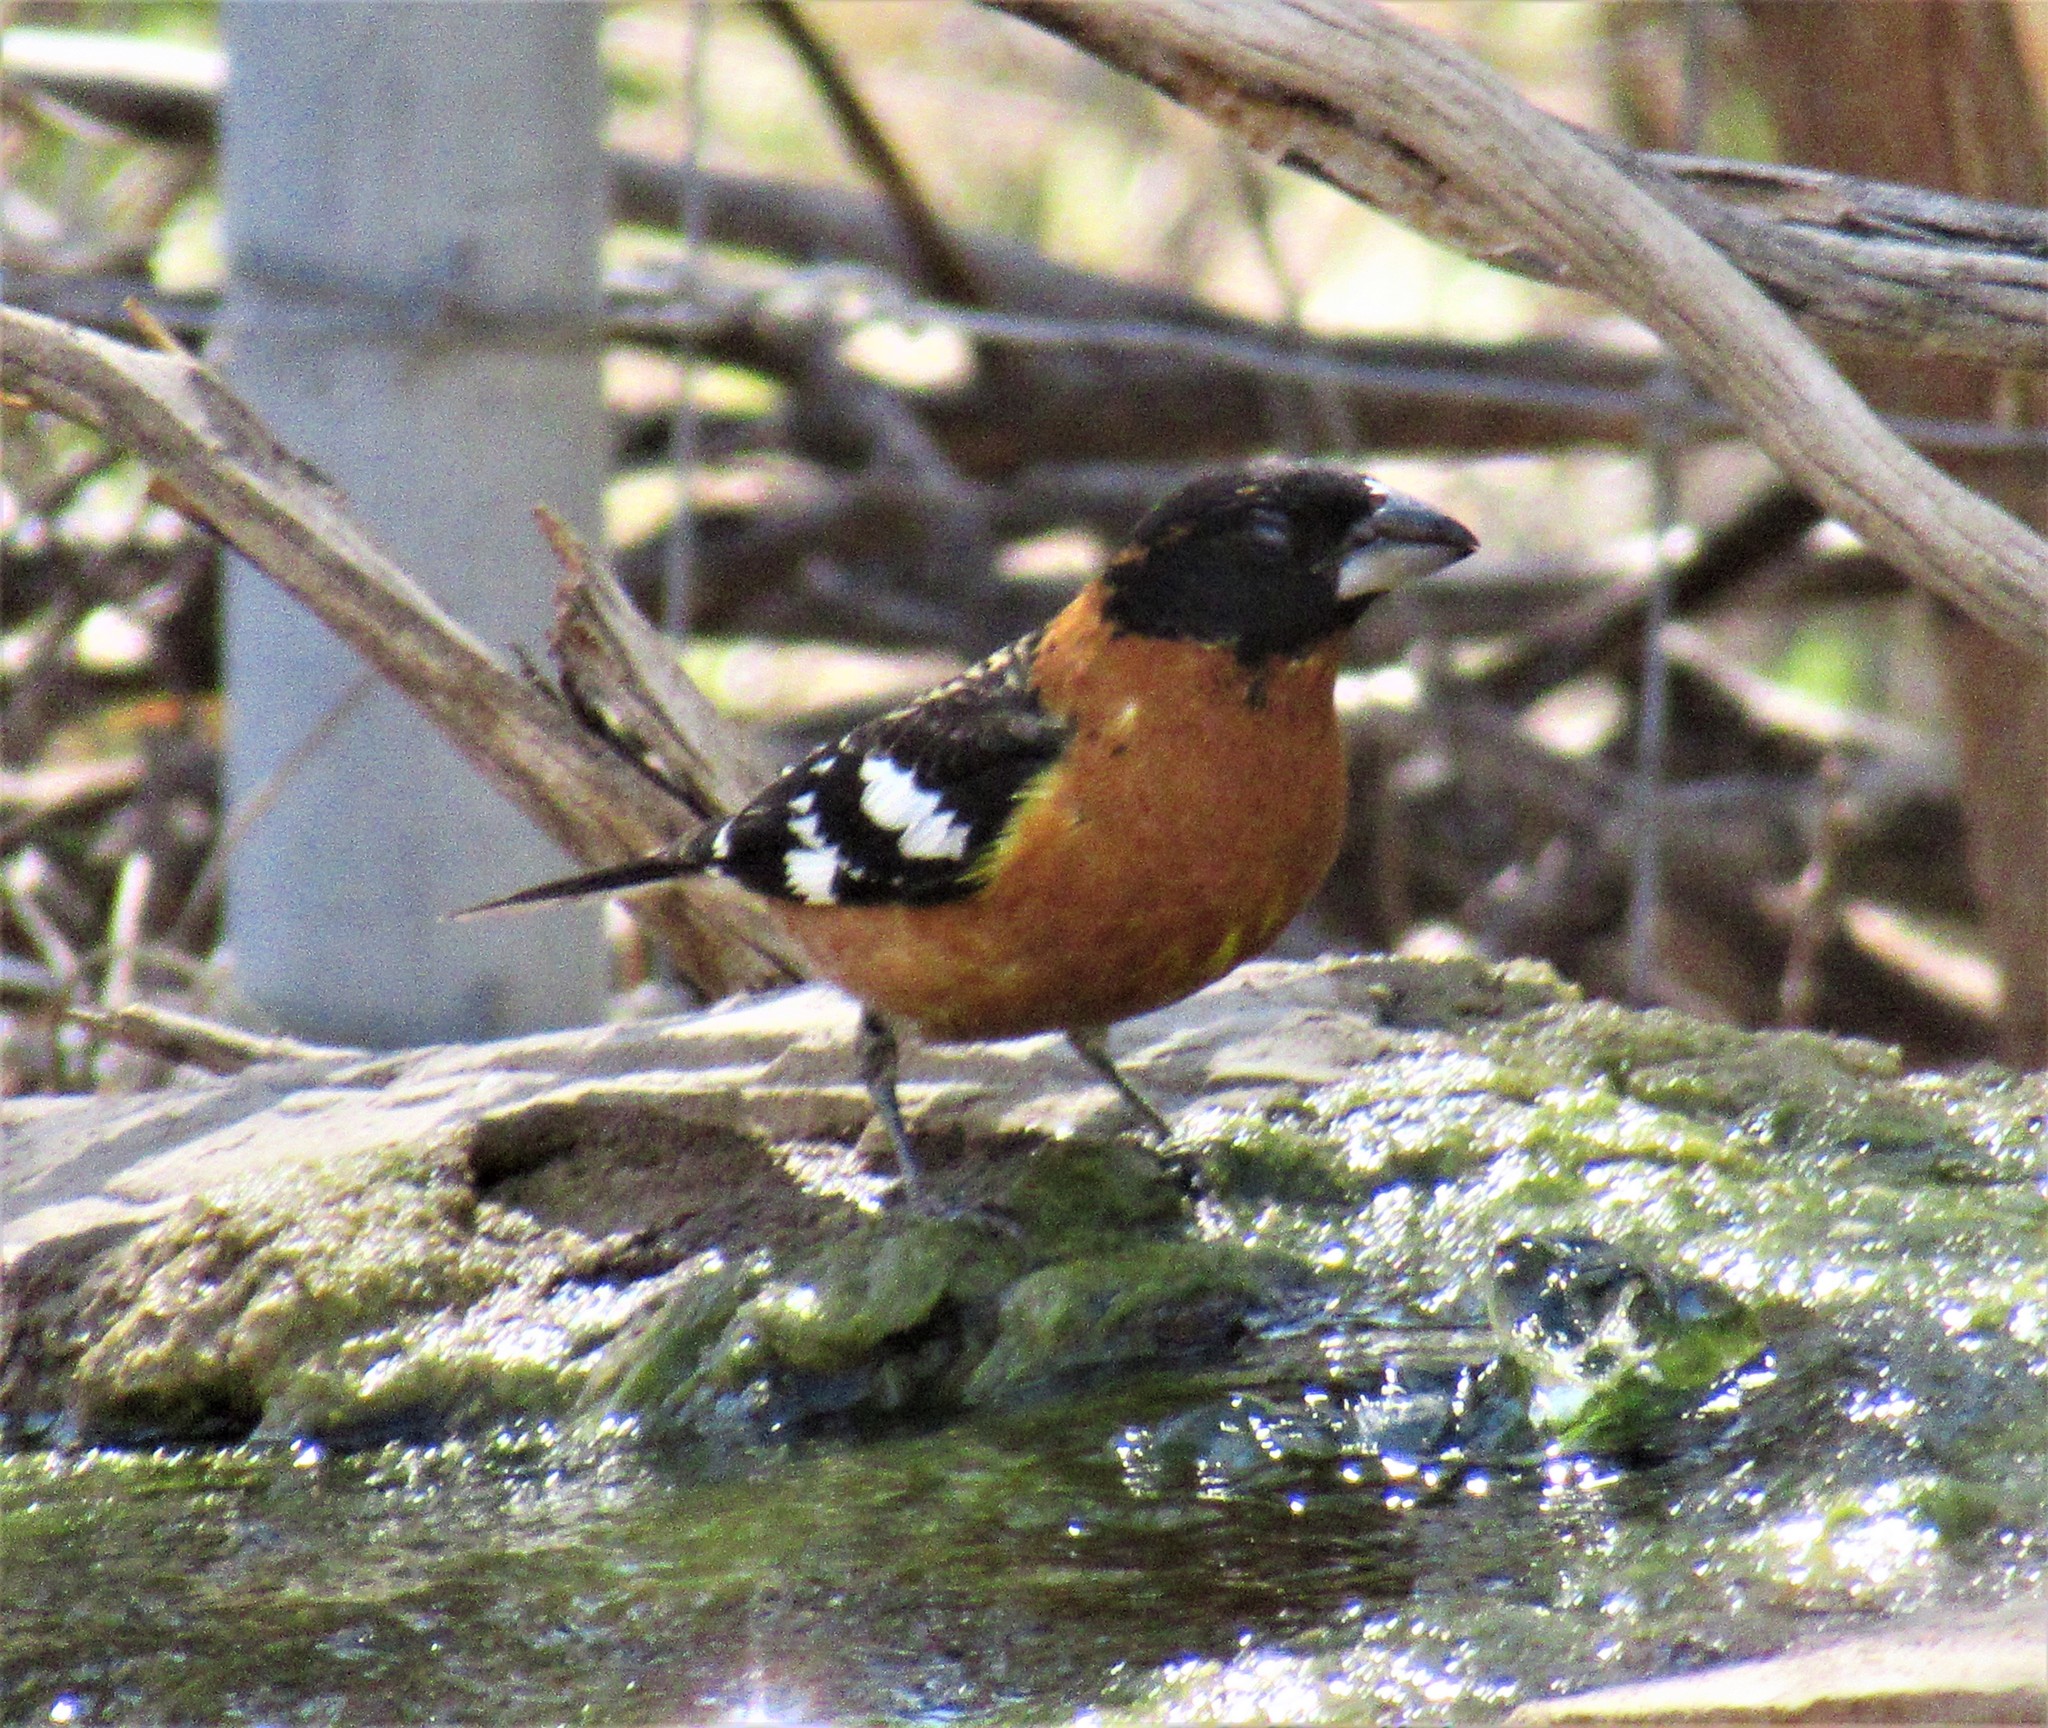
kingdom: Animalia
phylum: Chordata
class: Aves
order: Passeriformes
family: Cardinalidae
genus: Pheucticus
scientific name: Pheucticus melanocephalus
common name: Black-headed grosbeak
